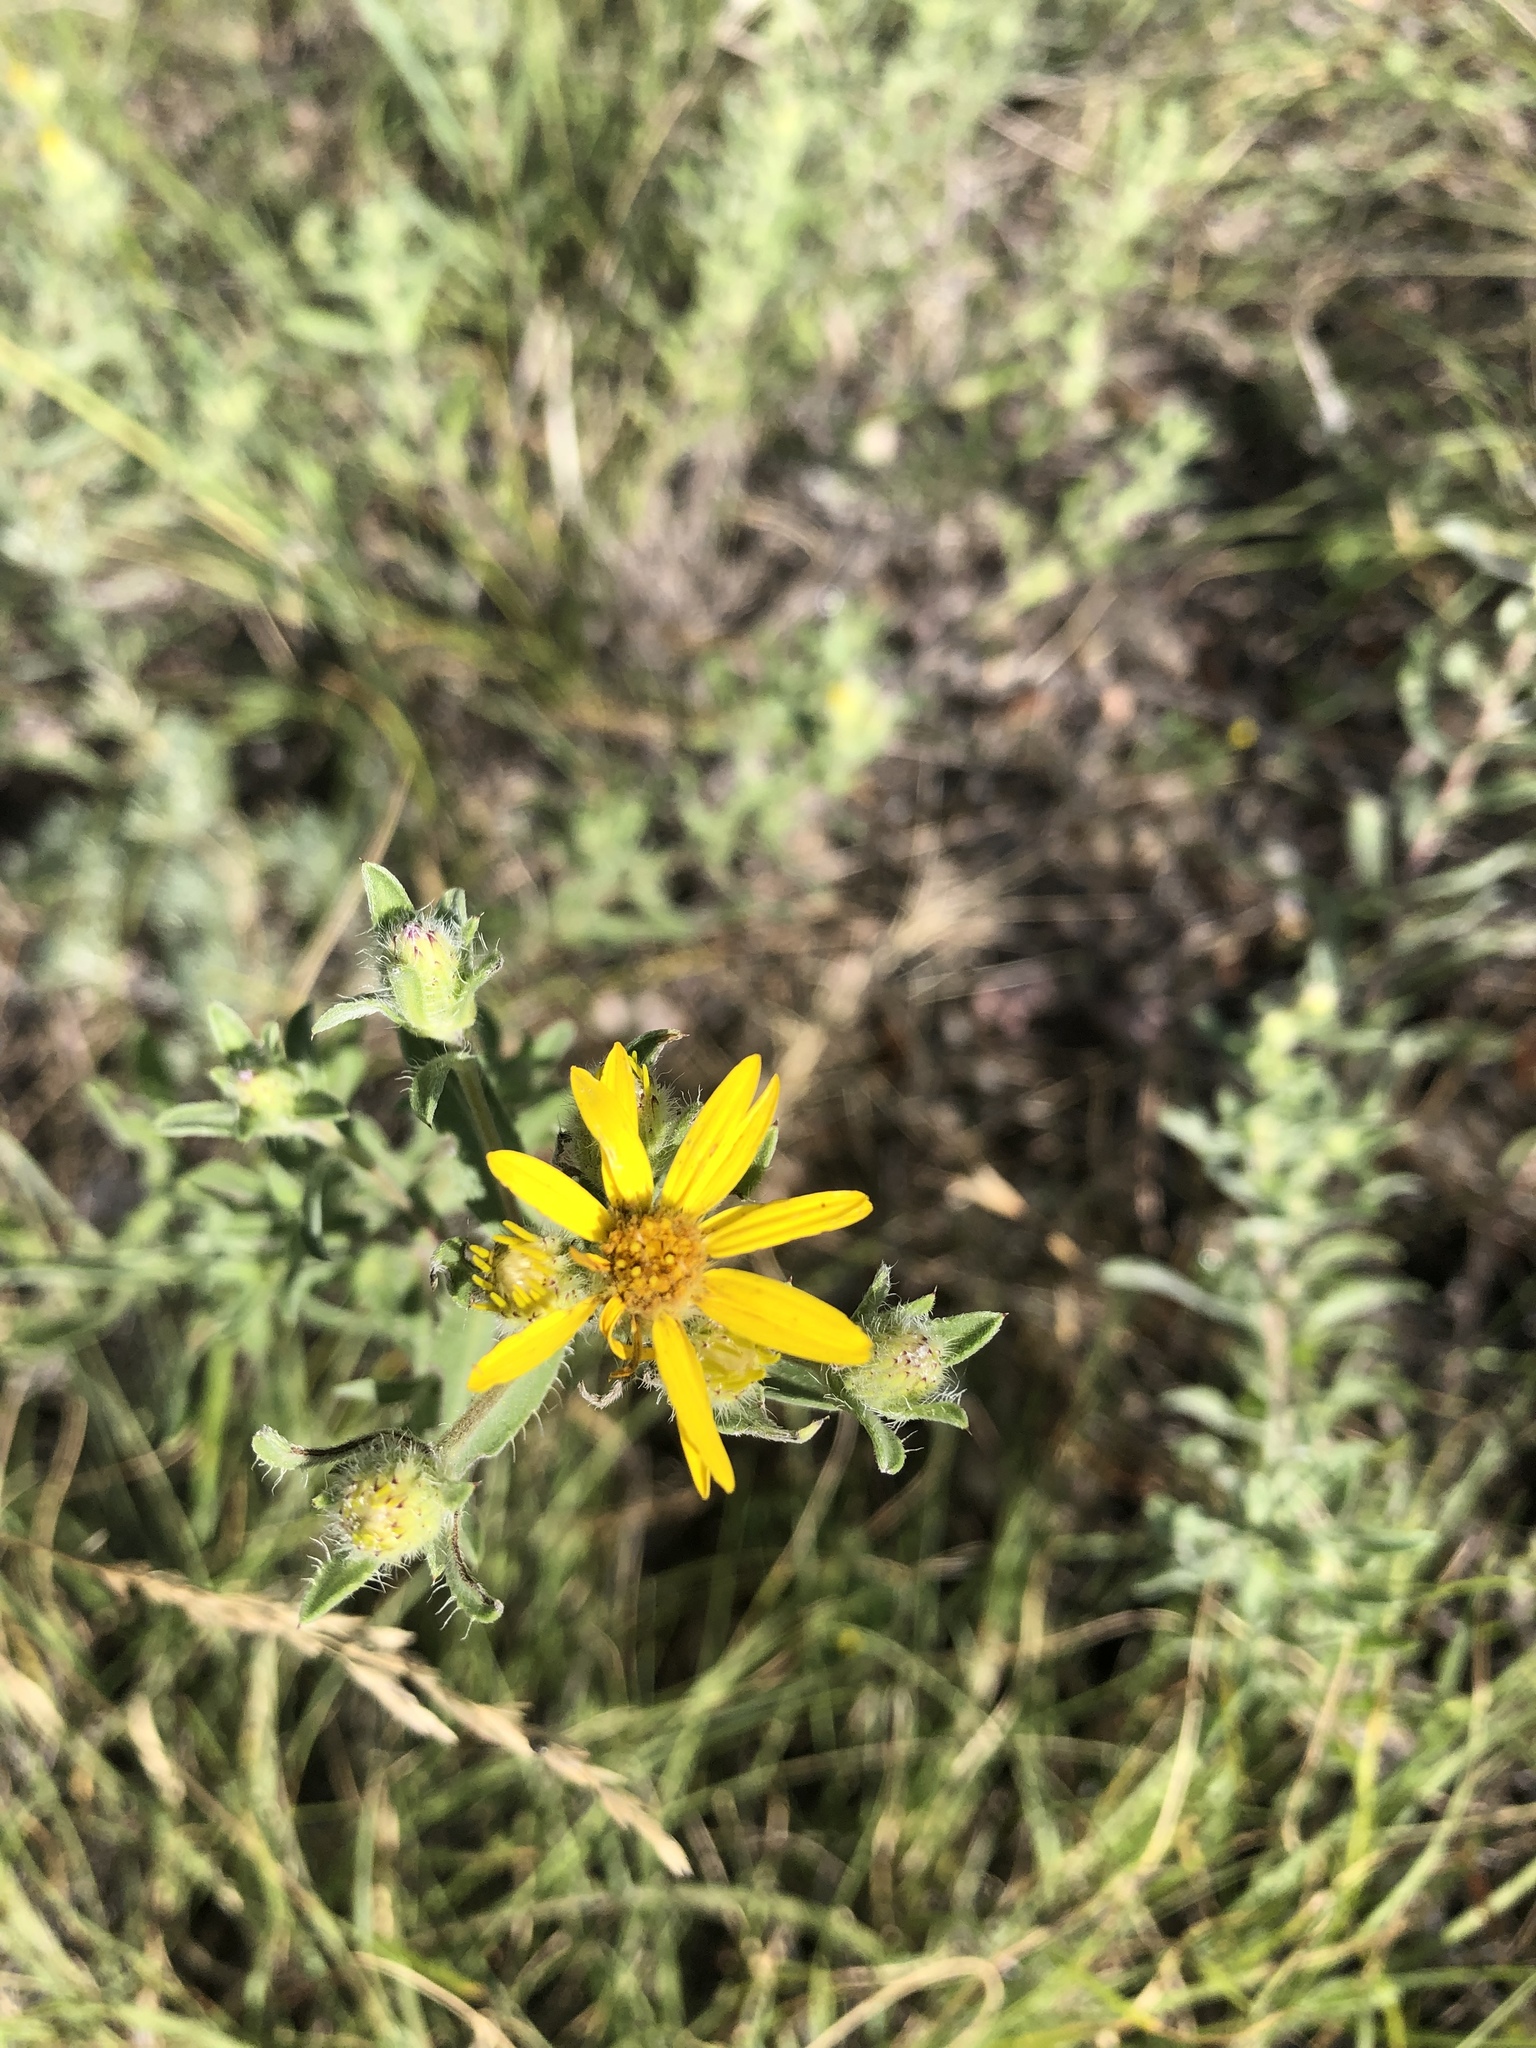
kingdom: Plantae
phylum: Tracheophyta
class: Magnoliopsida
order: Asterales
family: Asteraceae
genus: Heterotheca
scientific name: Heterotheca villosa
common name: Hairy false goldenaster
